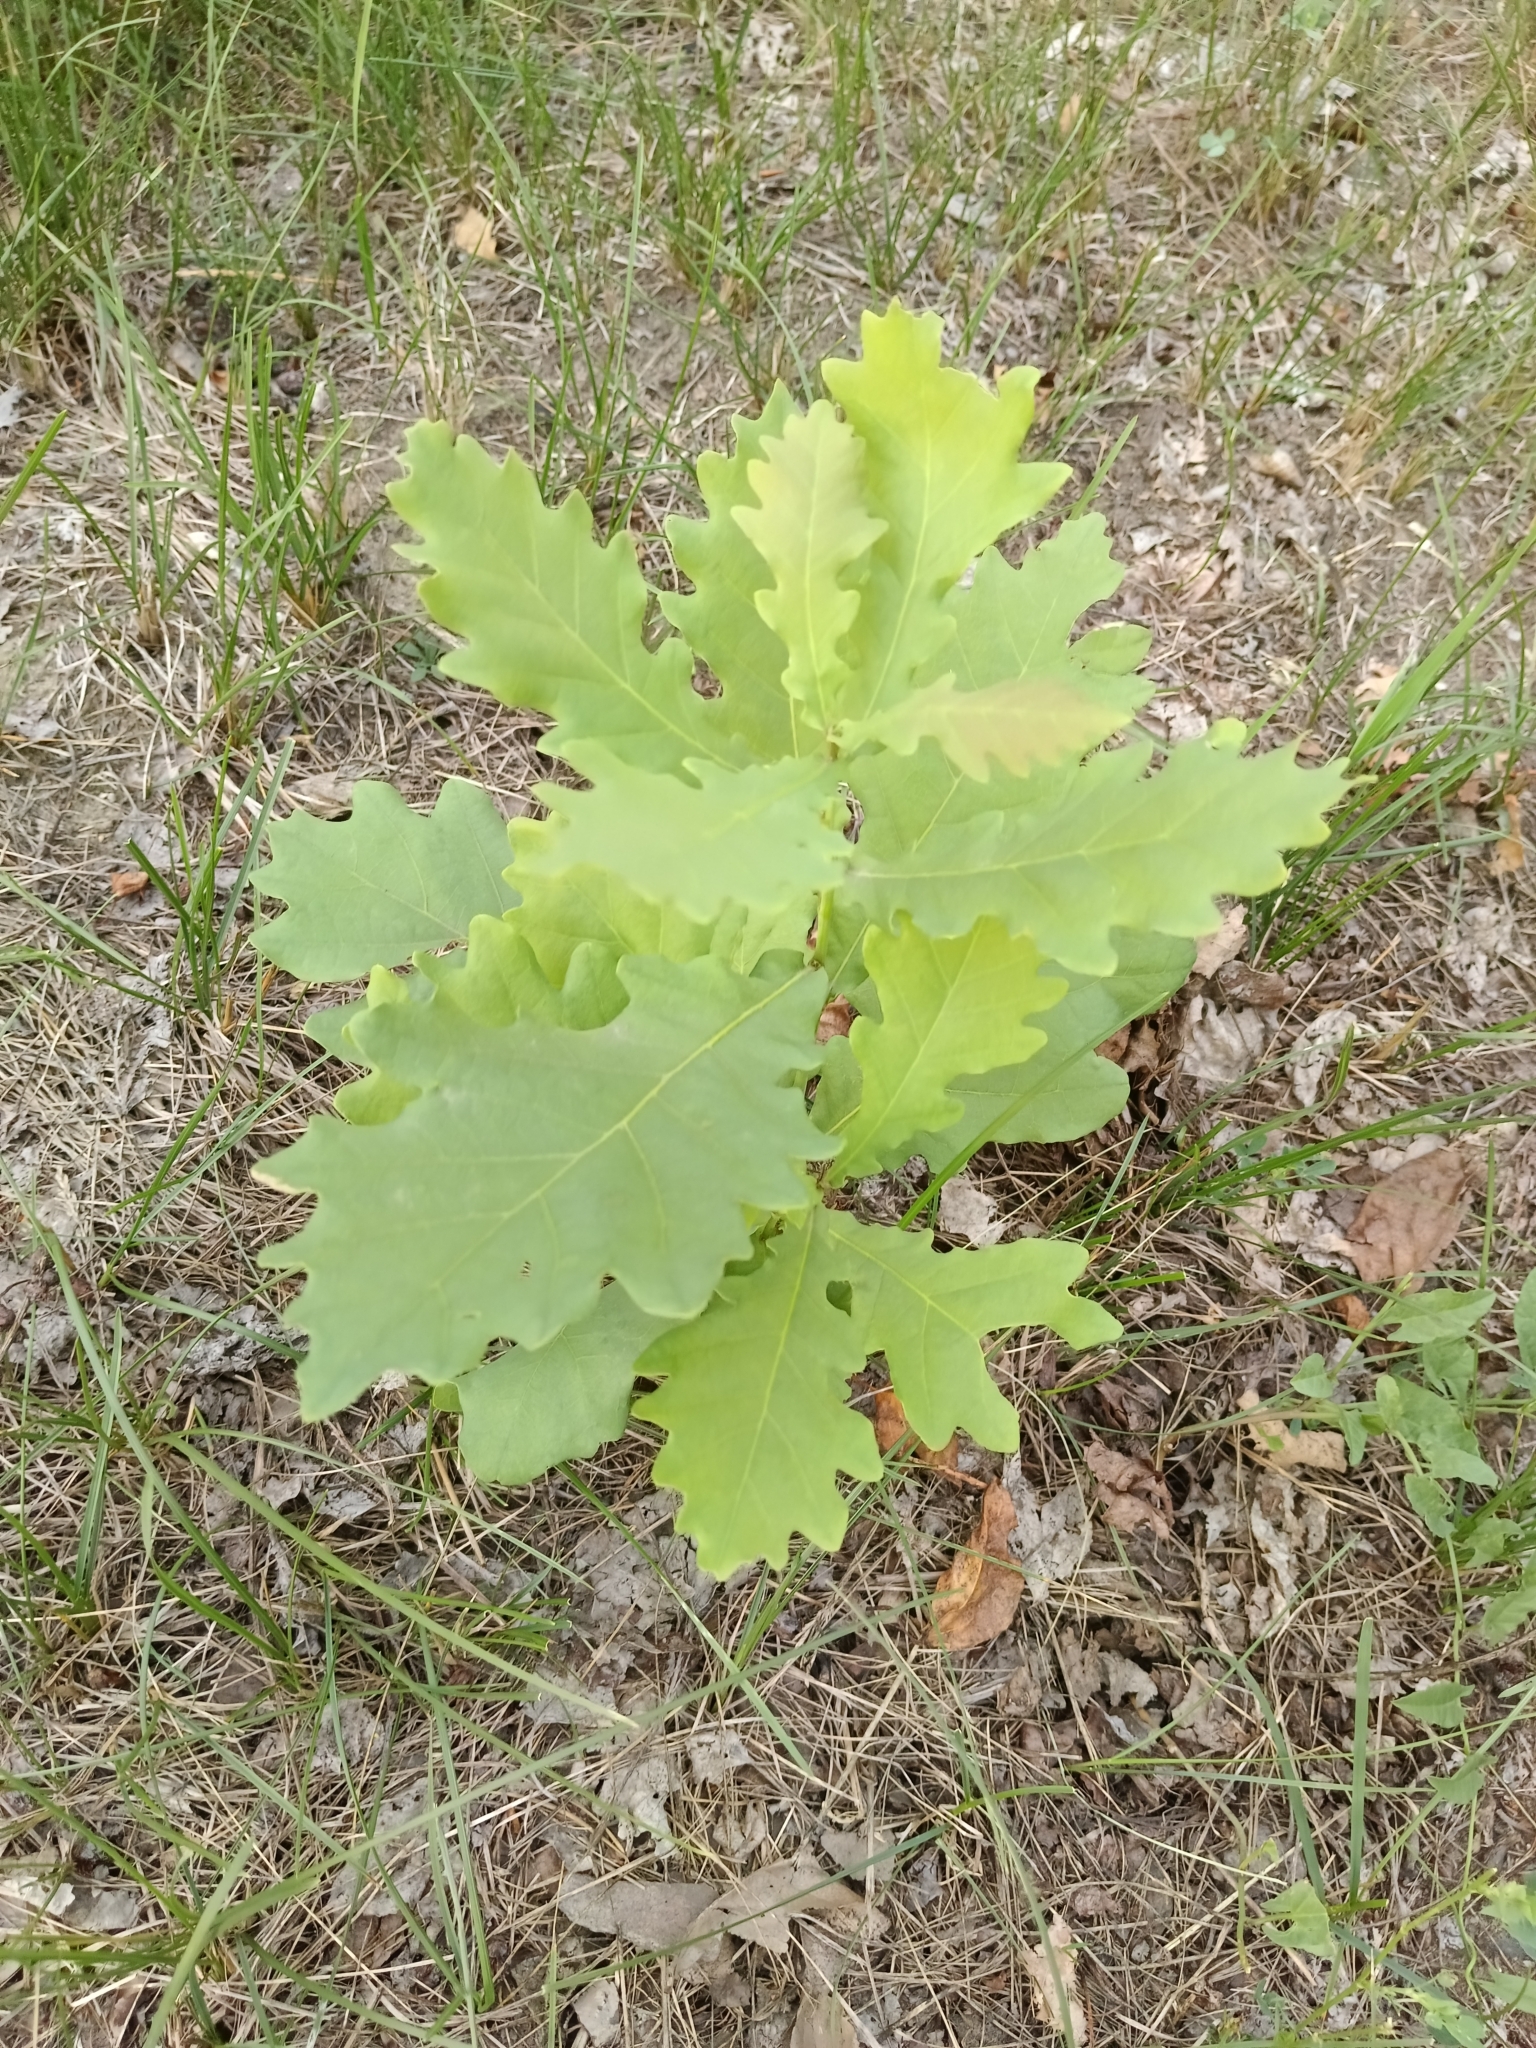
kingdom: Plantae
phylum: Tracheophyta
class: Magnoliopsida
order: Fagales
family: Fagaceae
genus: Quercus
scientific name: Quercus robur
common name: Pedunculate oak
